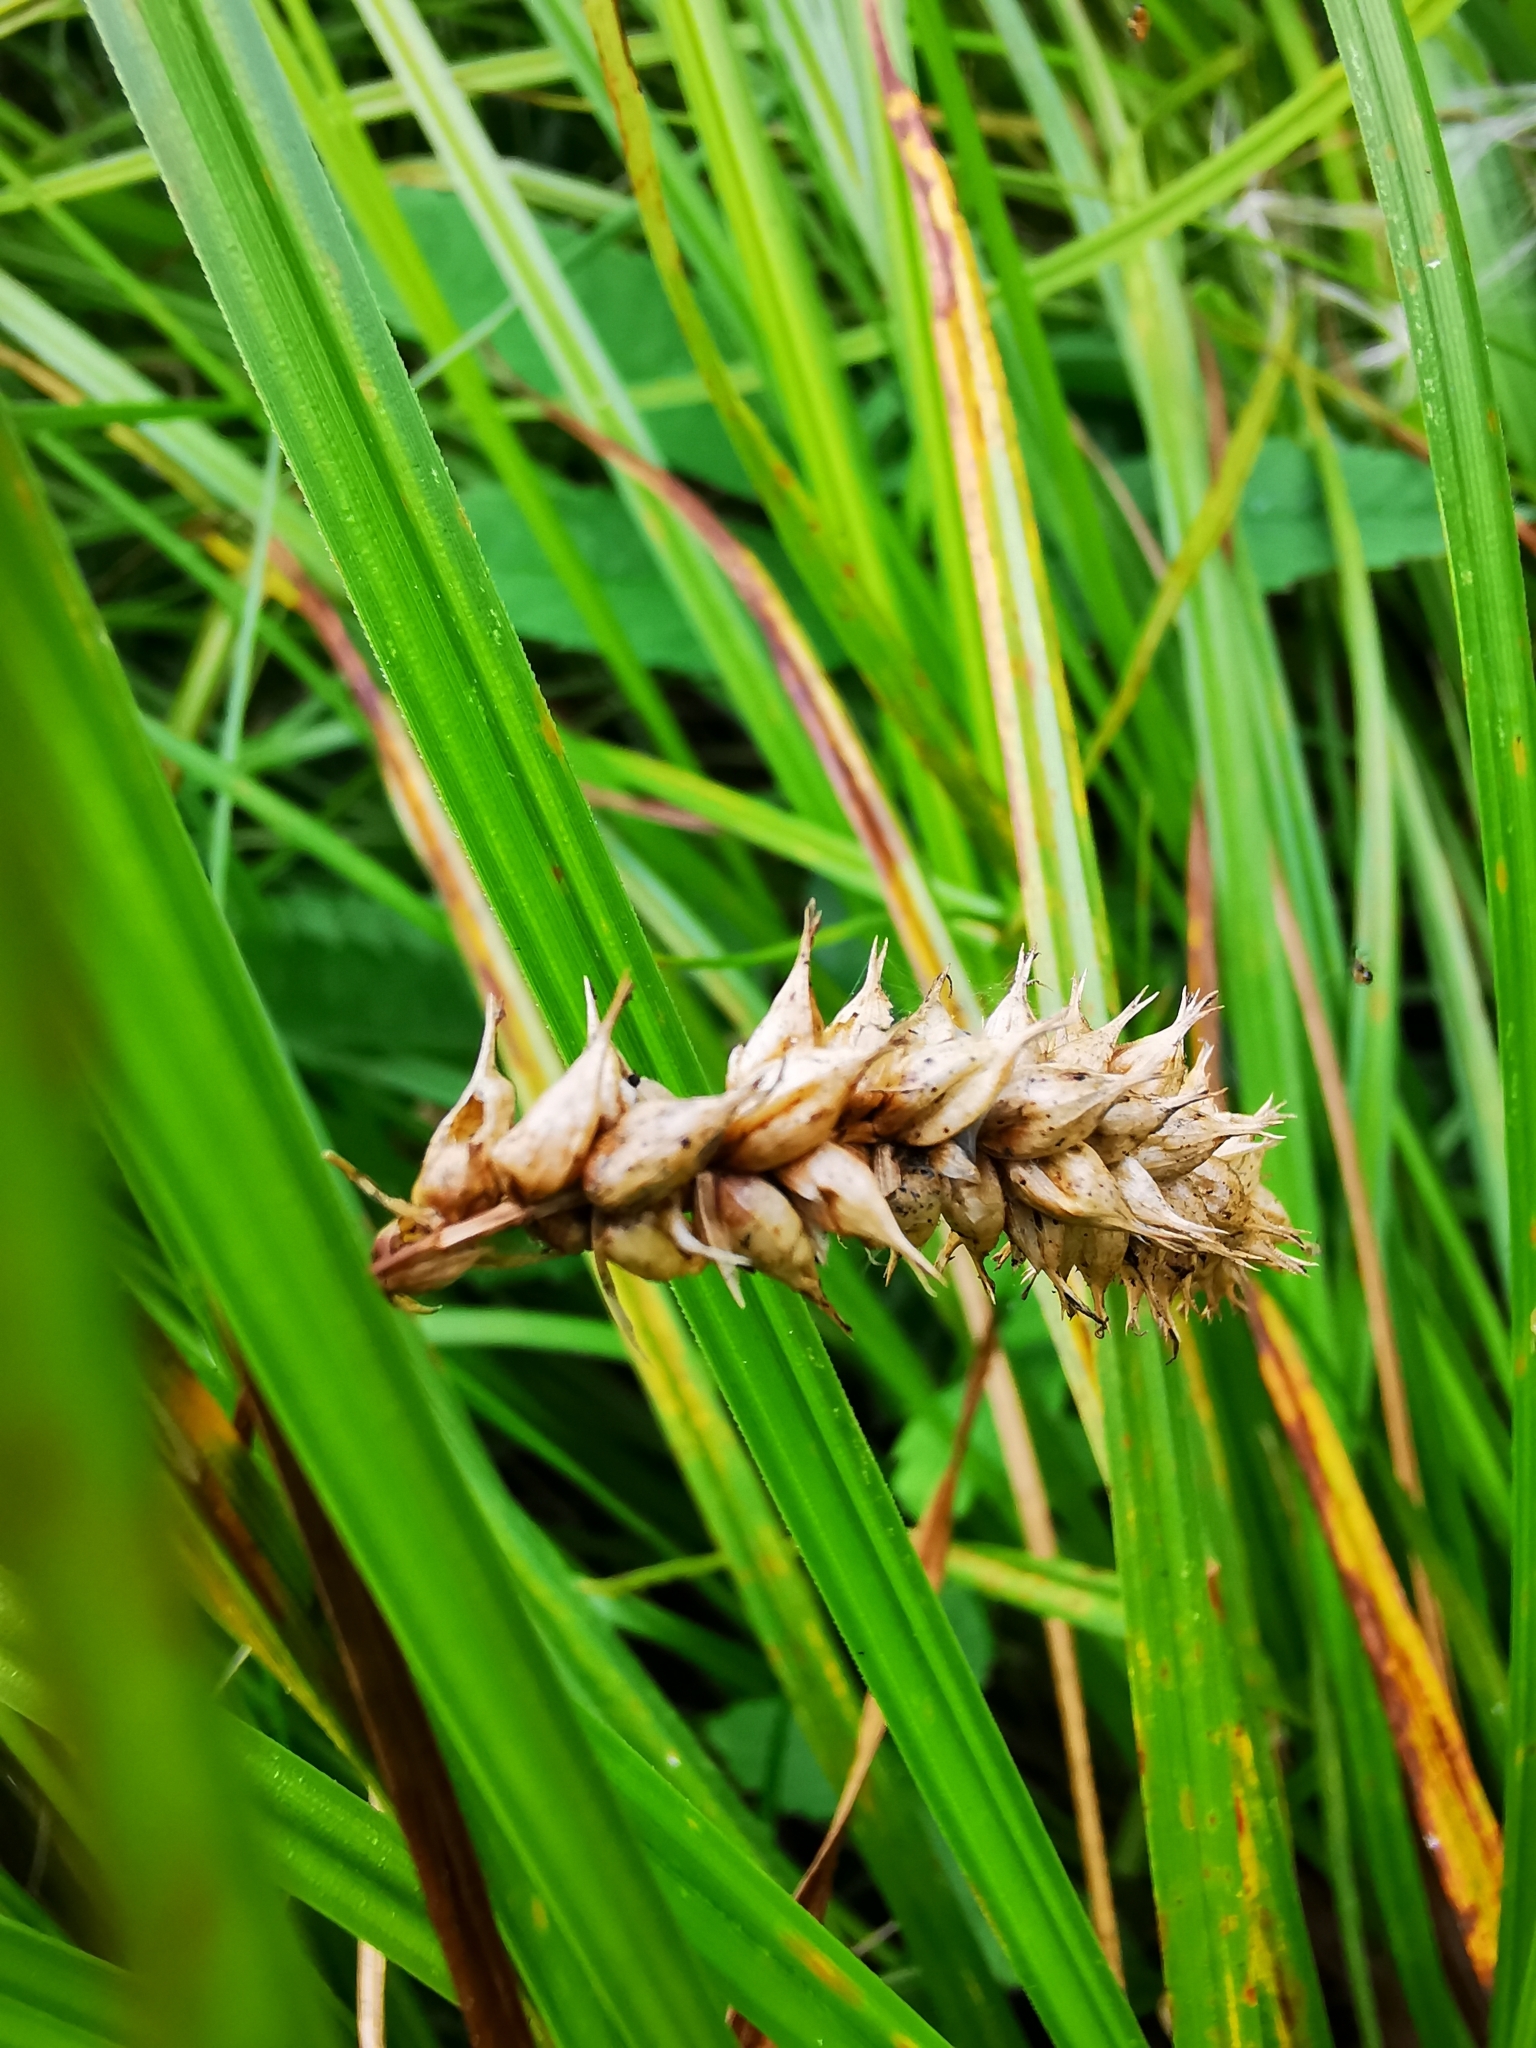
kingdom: Plantae
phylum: Tracheophyta
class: Liliopsida
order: Poales
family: Cyperaceae
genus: Carex
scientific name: Carex vesicaria
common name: Bladder-sedge
